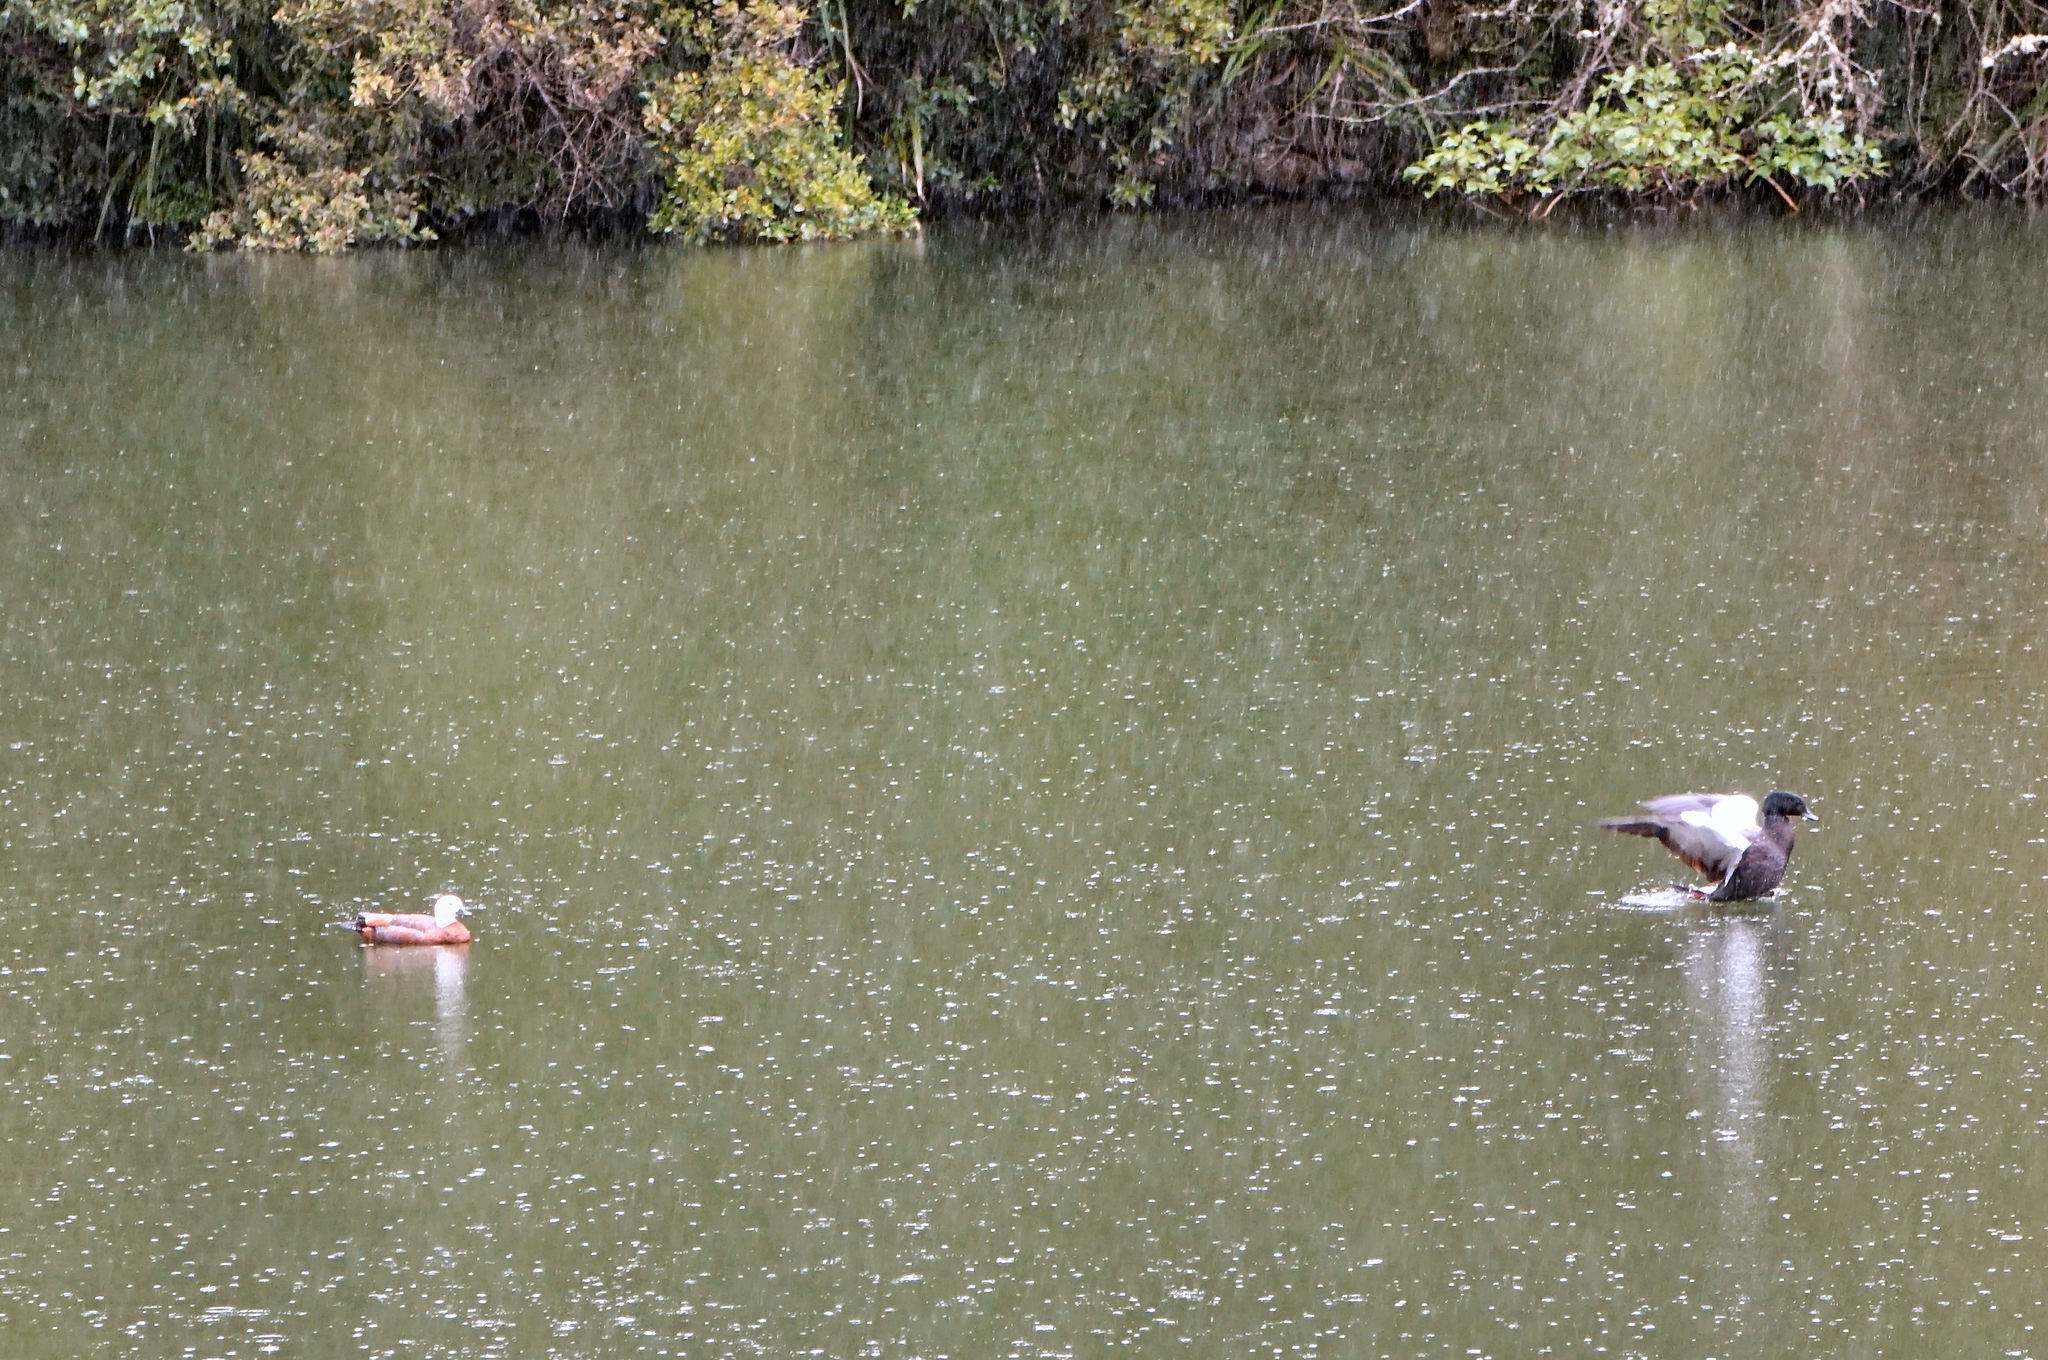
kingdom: Animalia
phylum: Chordata
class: Aves
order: Anseriformes
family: Anatidae
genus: Tadorna
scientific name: Tadorna variegata
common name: Paradise shelduck
